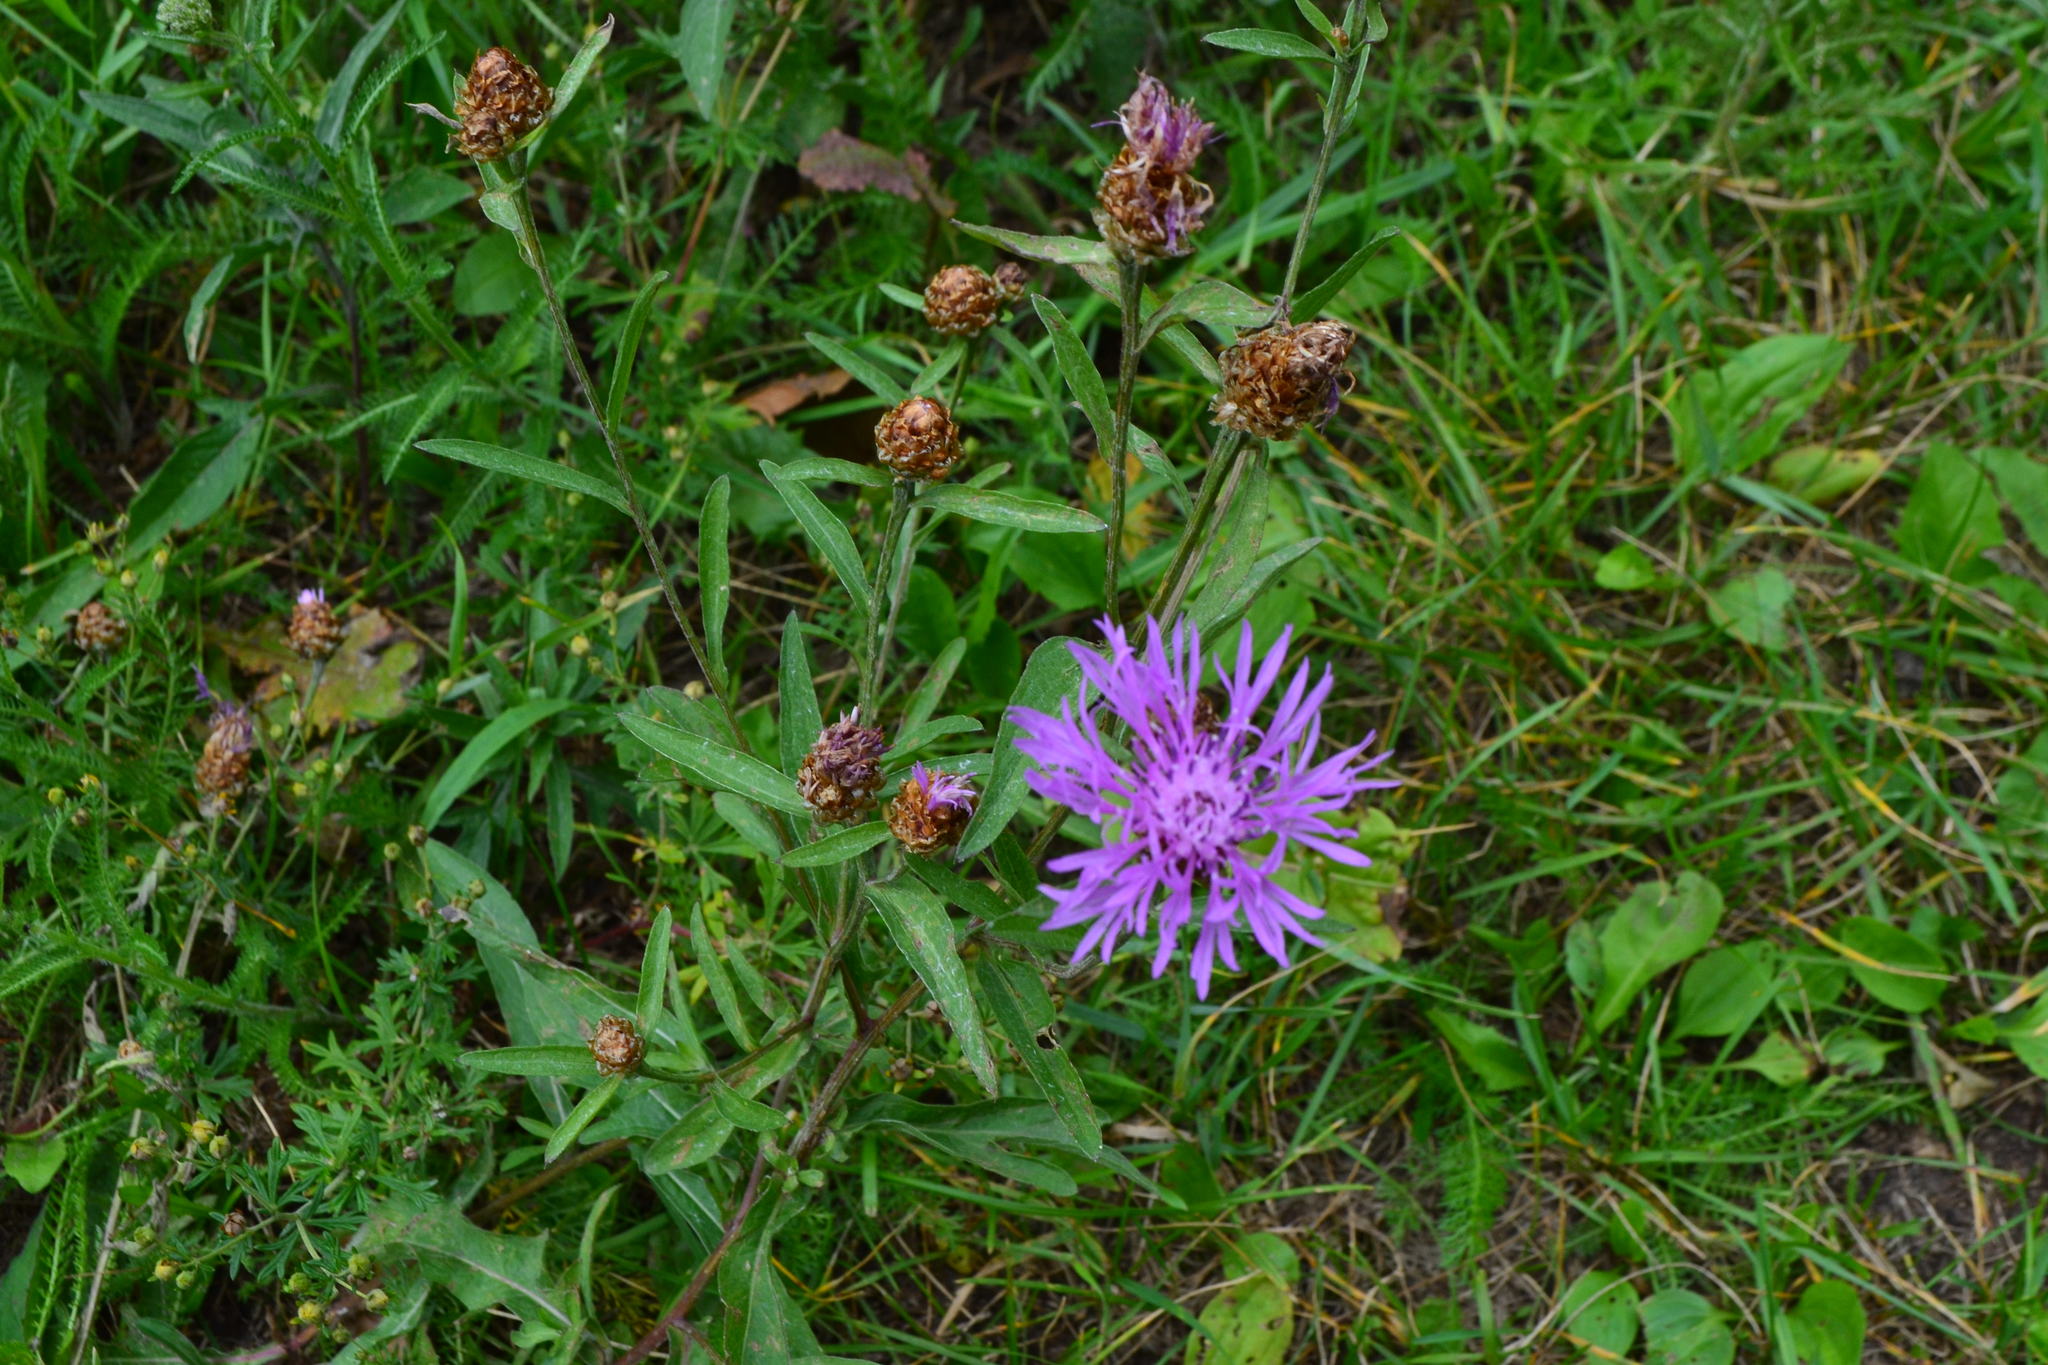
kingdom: Plantae
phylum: Tracheophyta
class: Magnoliopsida
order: Asterales
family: Asteraceae
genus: Centaurea
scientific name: Centaurea jacea
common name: Brown knapweed
